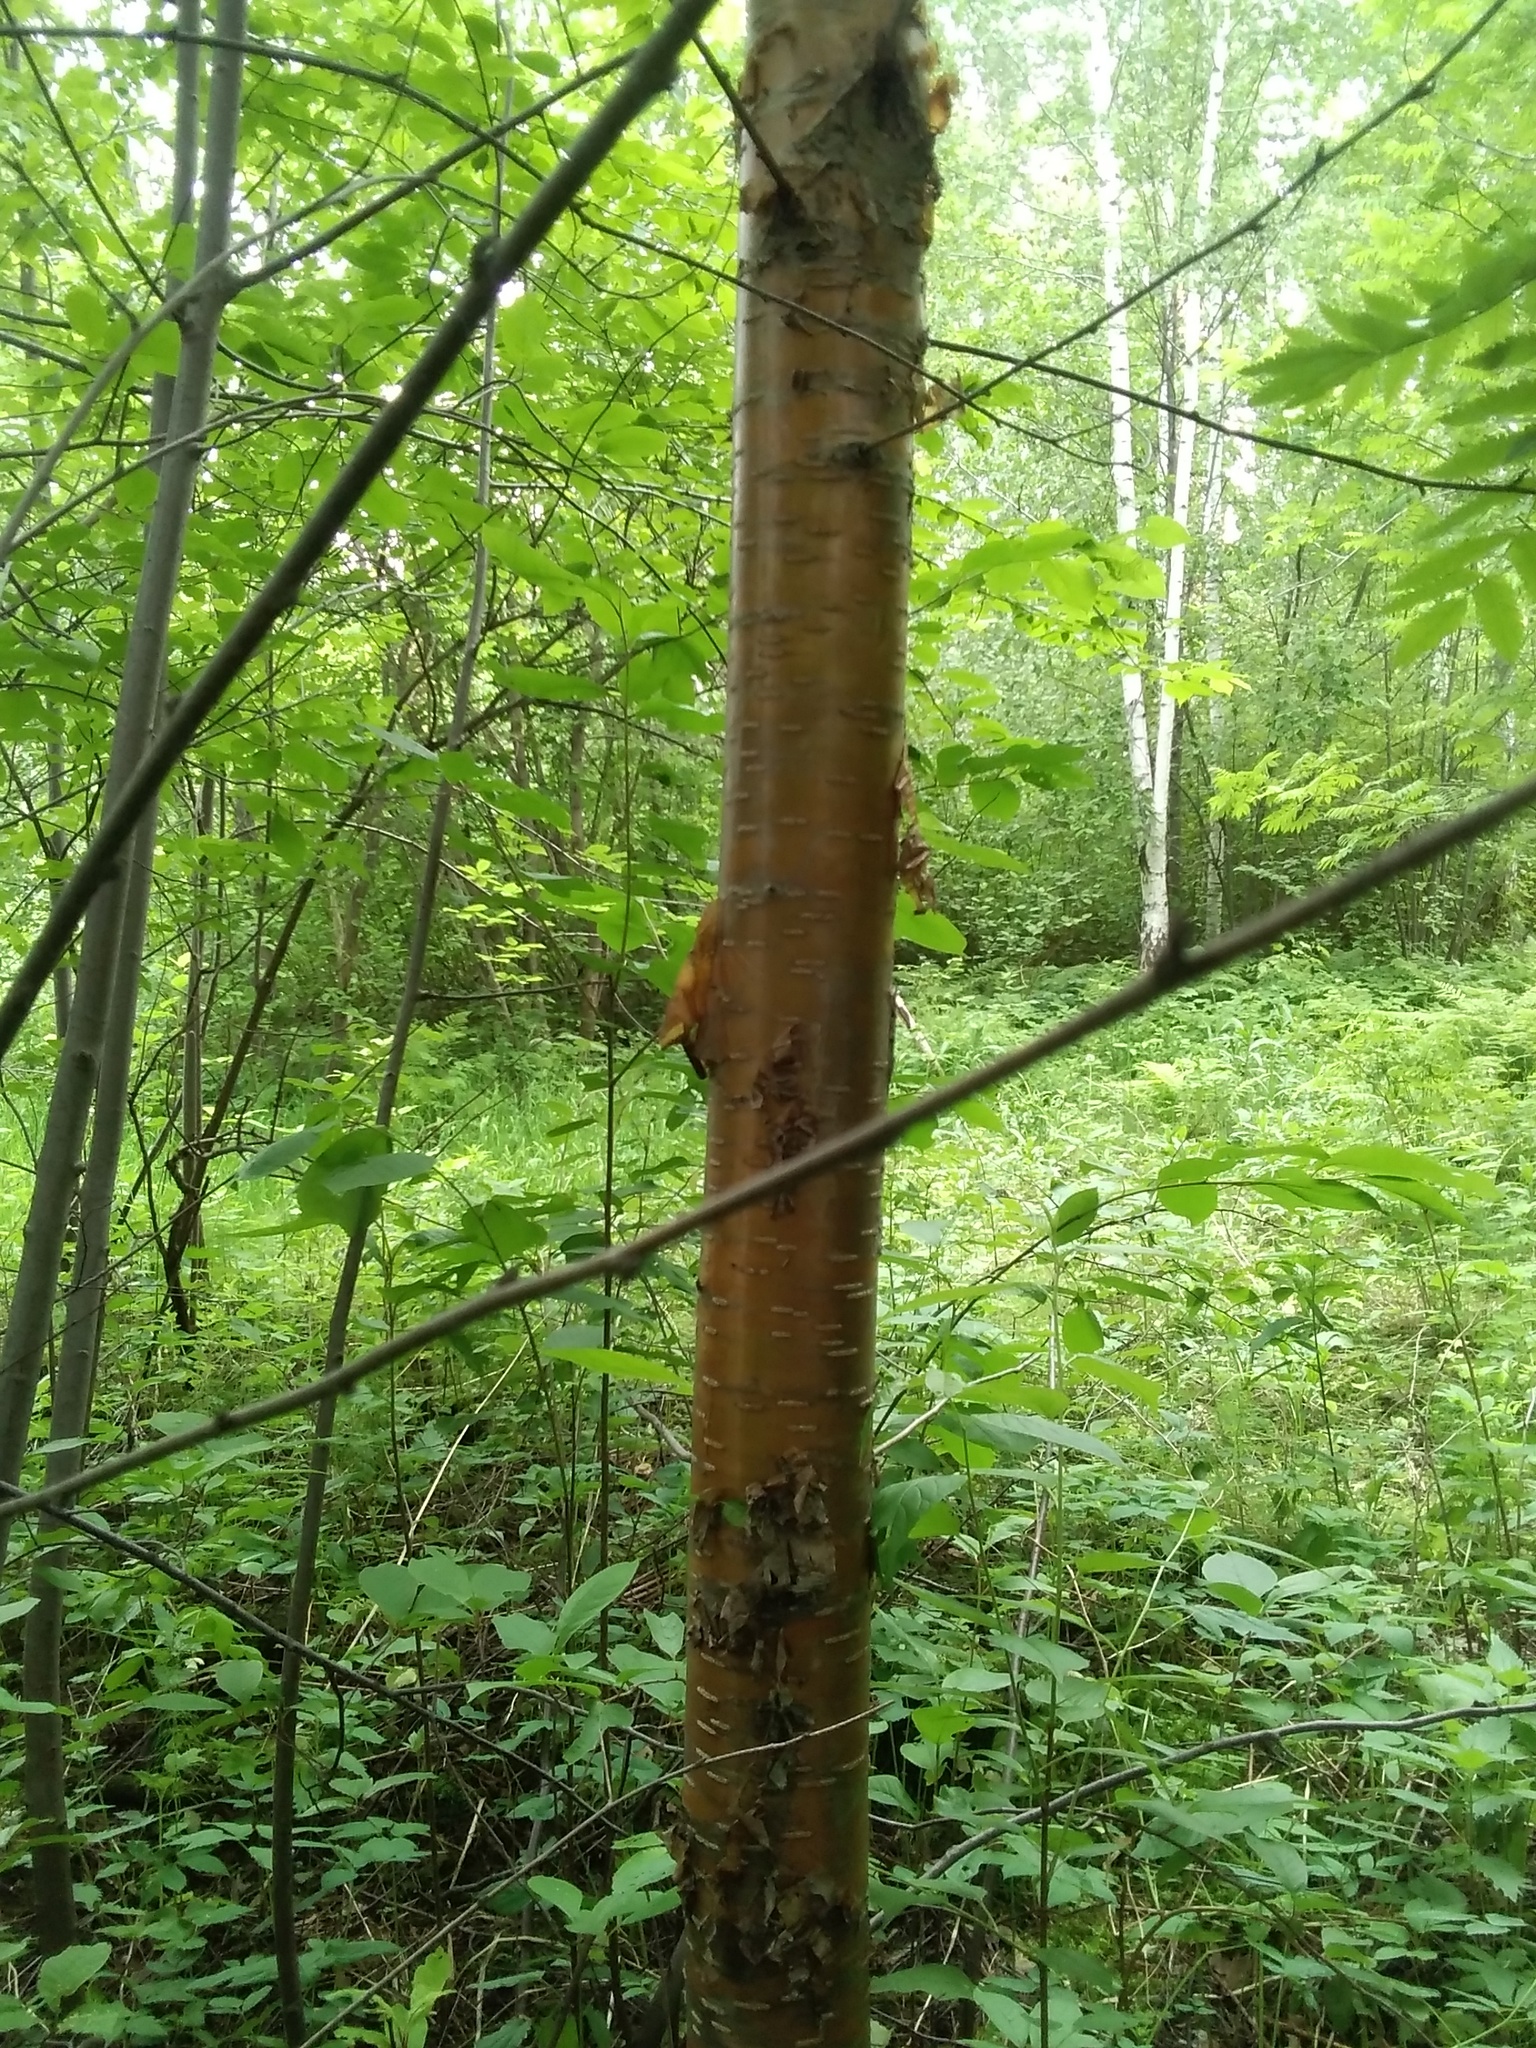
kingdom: Plantae
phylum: Tracheophyta
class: Magnoliopsida
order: Rosales
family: Rosaceae
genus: Prunus
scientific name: Prunus glandulifolia
